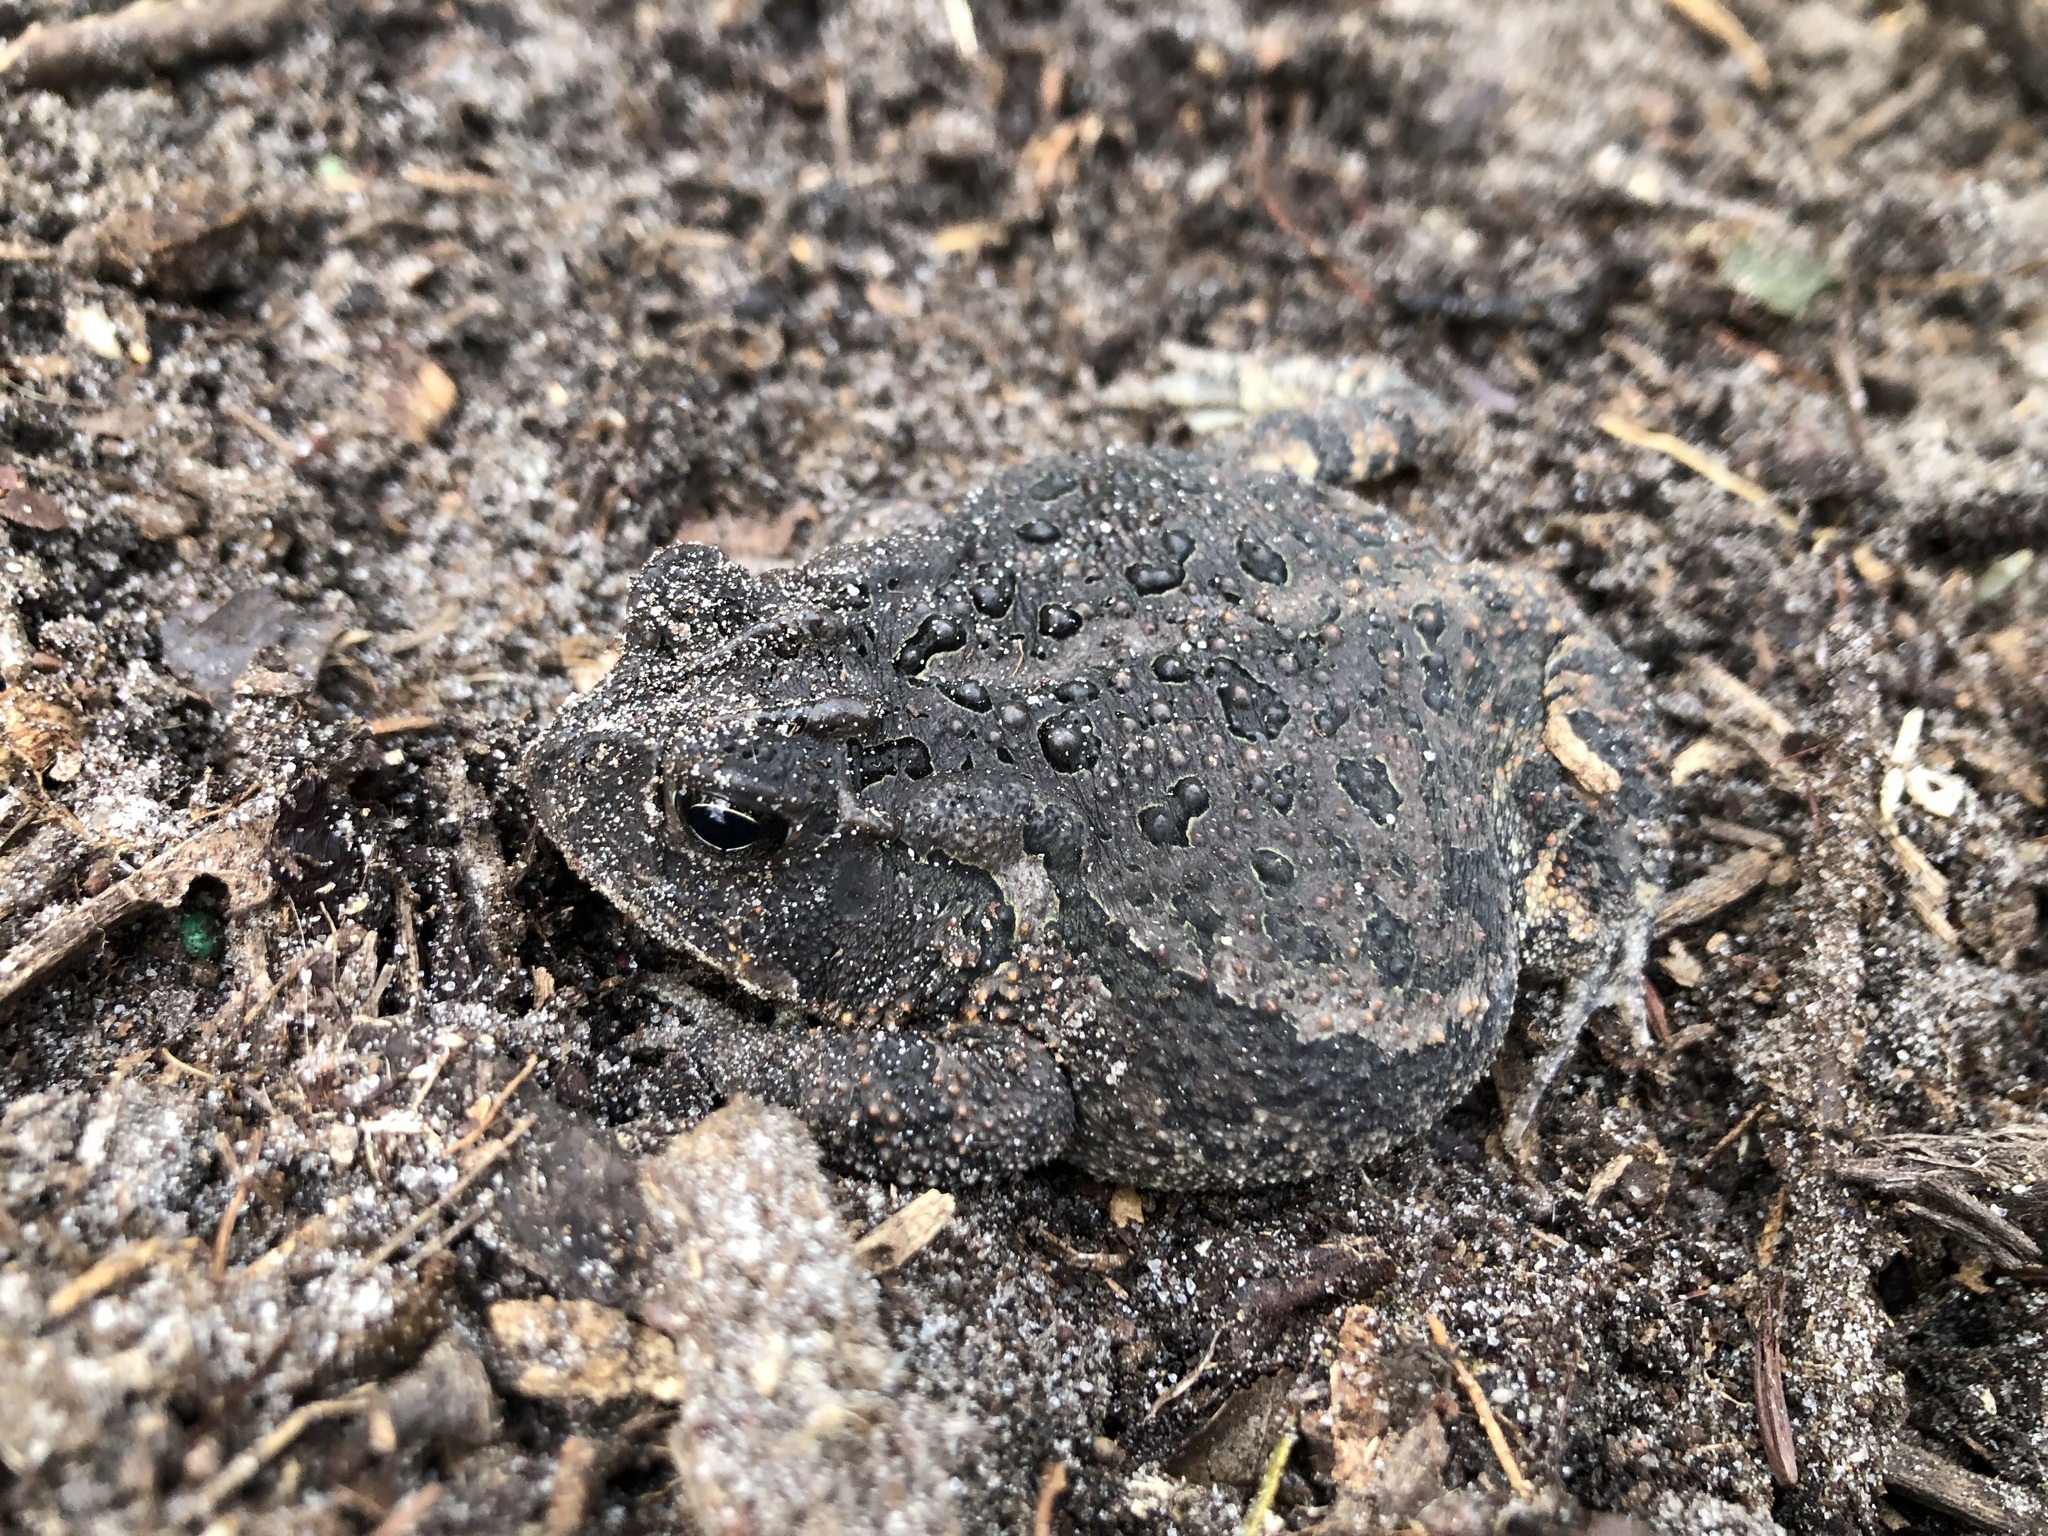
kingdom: Animalia
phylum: Chordata
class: Amphibia
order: Anura
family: Bufonidae
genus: Anaxyrus
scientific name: Anaxyrus terrestris
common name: Southern toad
